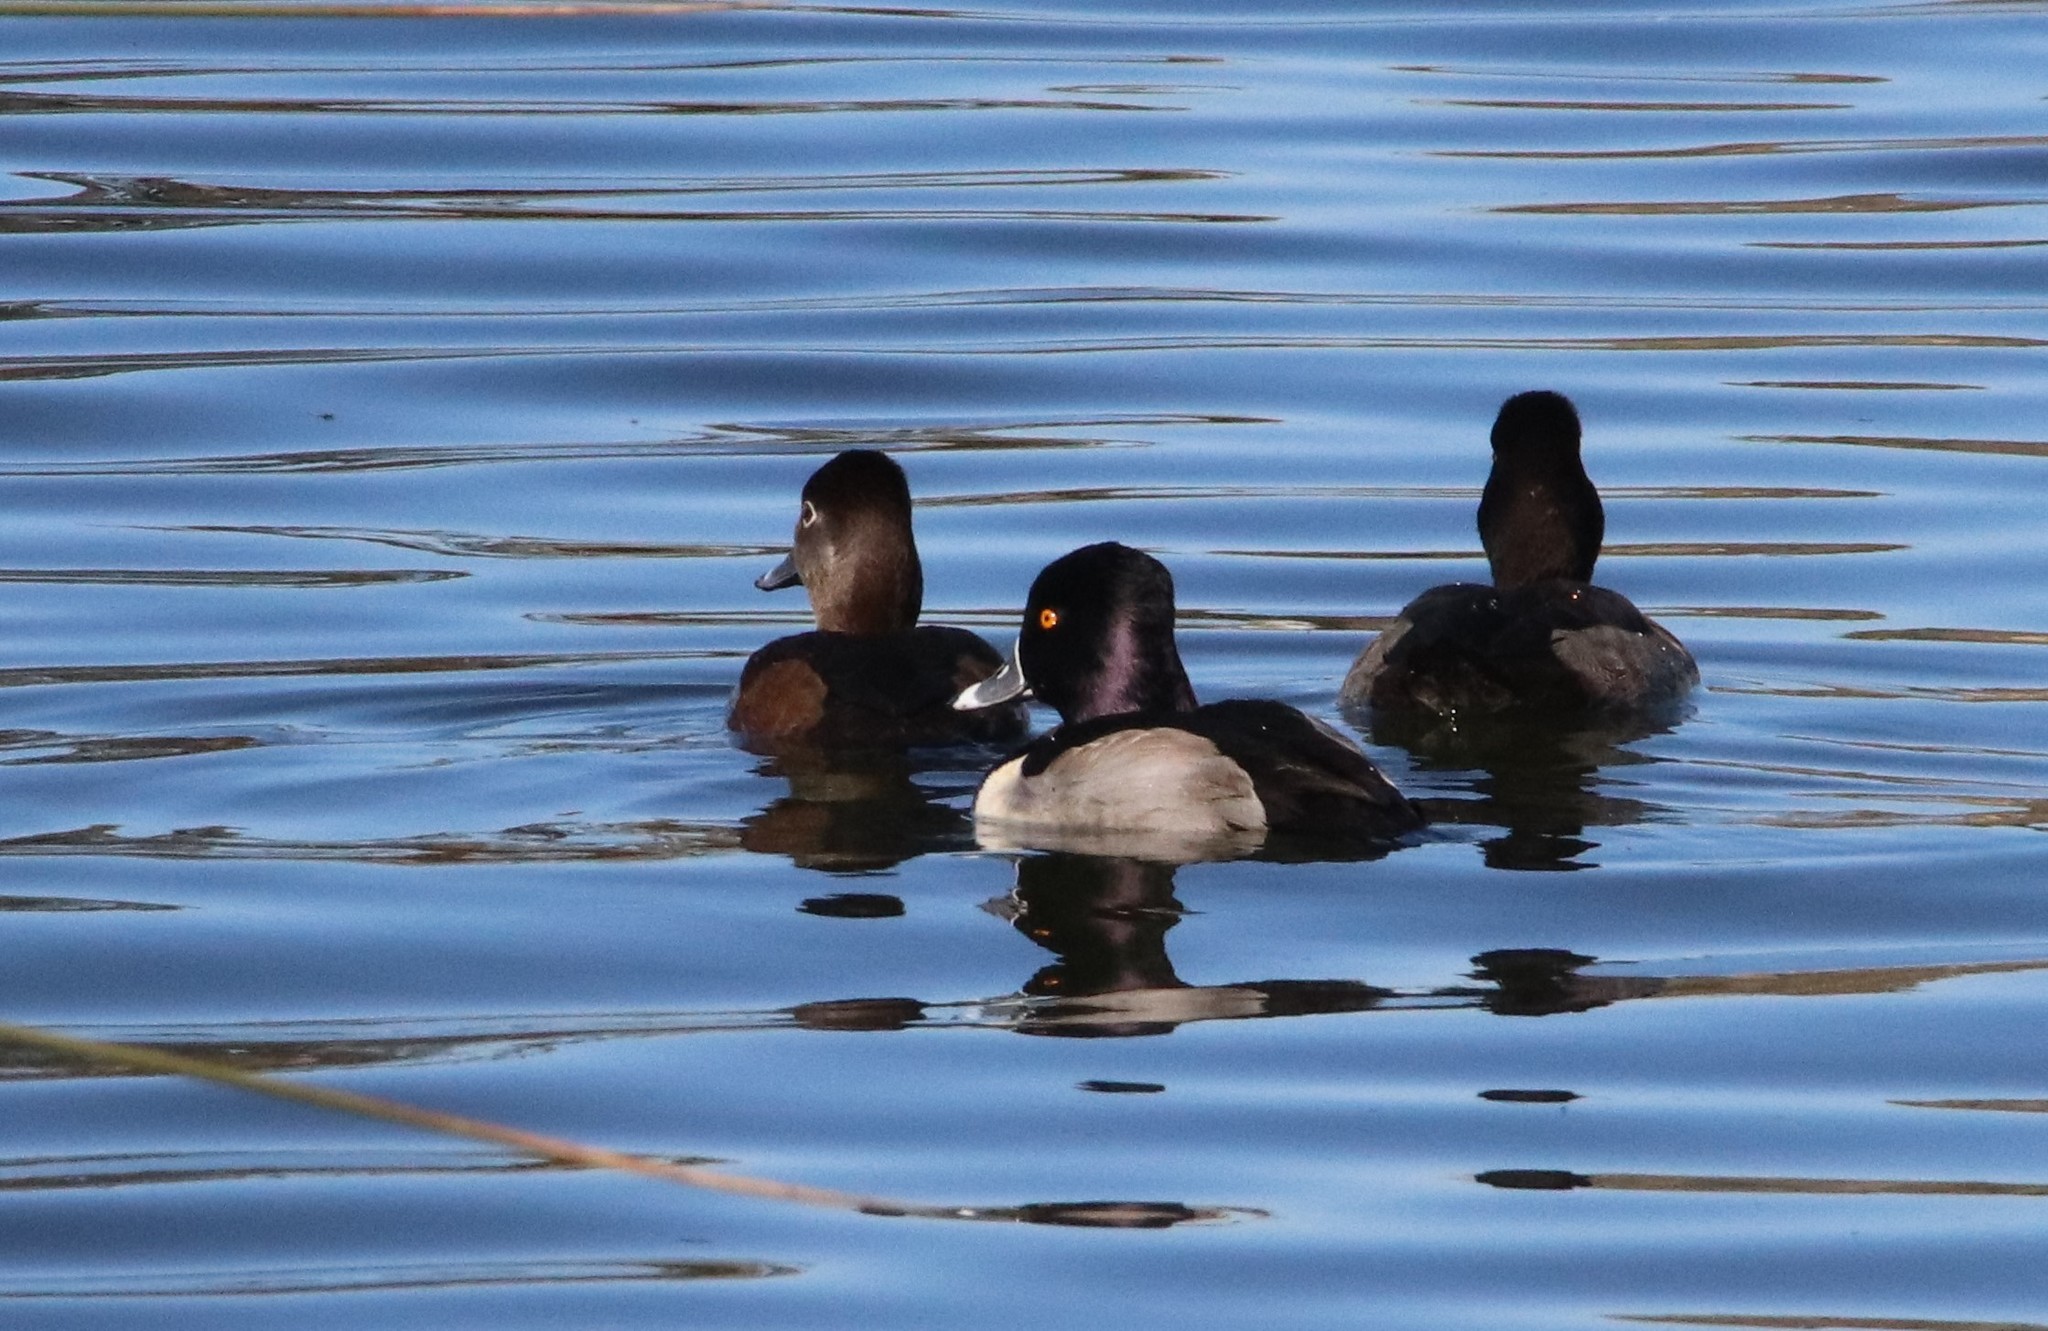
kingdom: Animalia
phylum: Chordata
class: Aves
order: Anseriformes
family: Anatidae
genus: Aythya
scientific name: Aythya collaris
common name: Ring-necked duck
